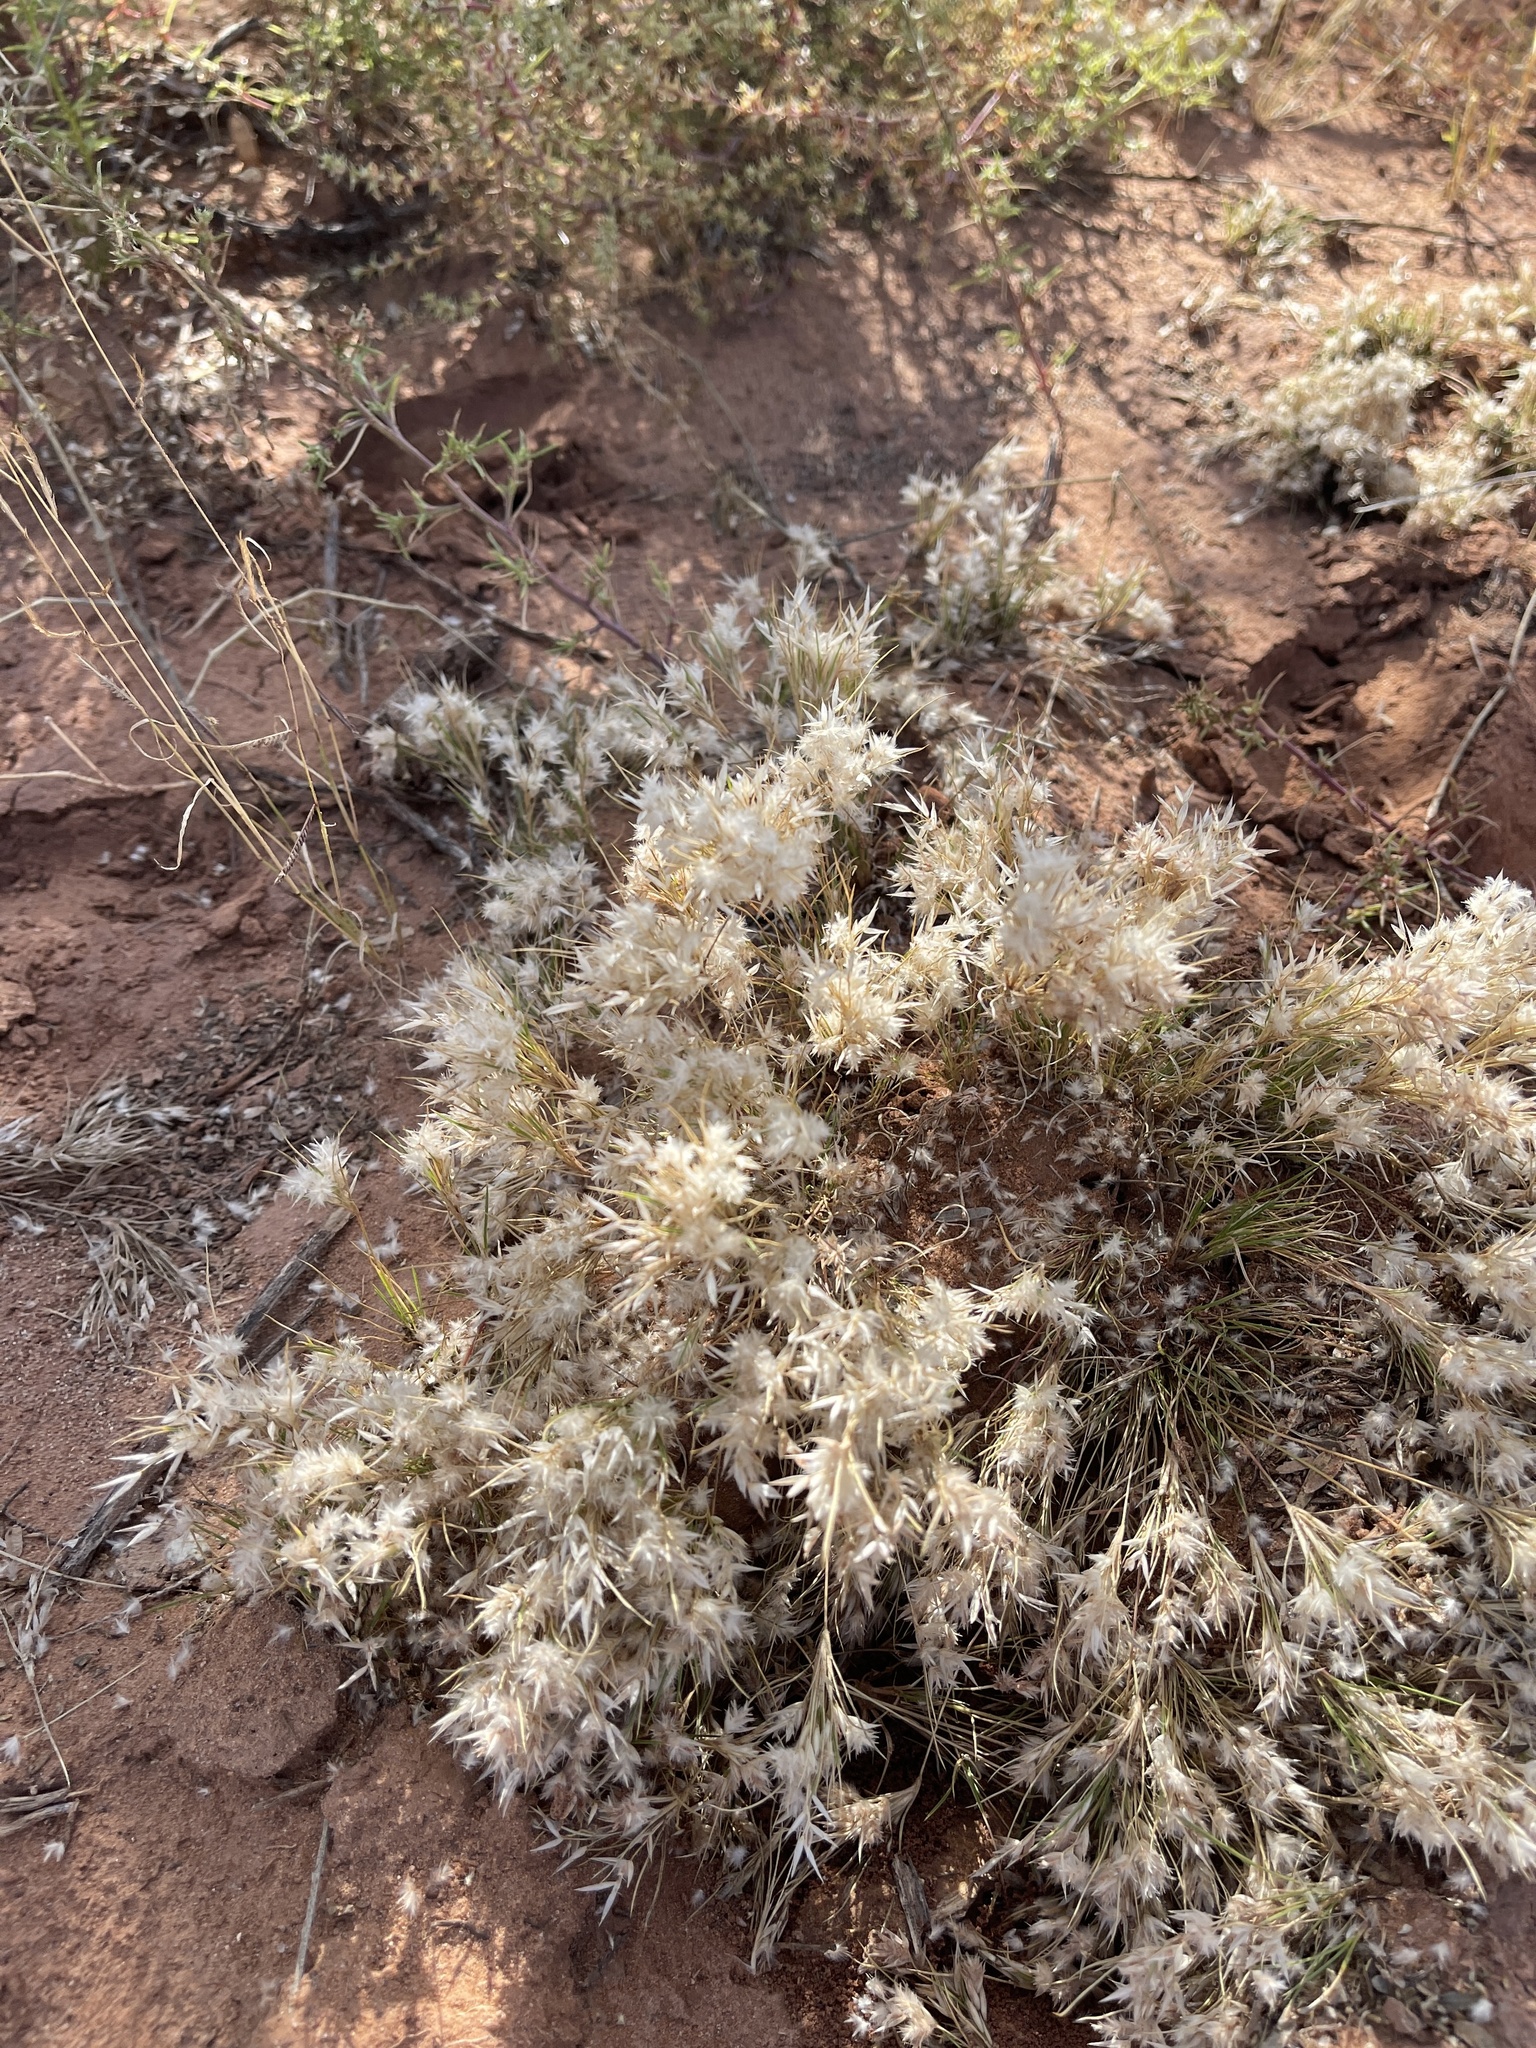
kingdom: Plantae
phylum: Tracheophyta
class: Liliopsida
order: Poales
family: Poaceae
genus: Dasyochloa
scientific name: Dasyochloa pulchella
